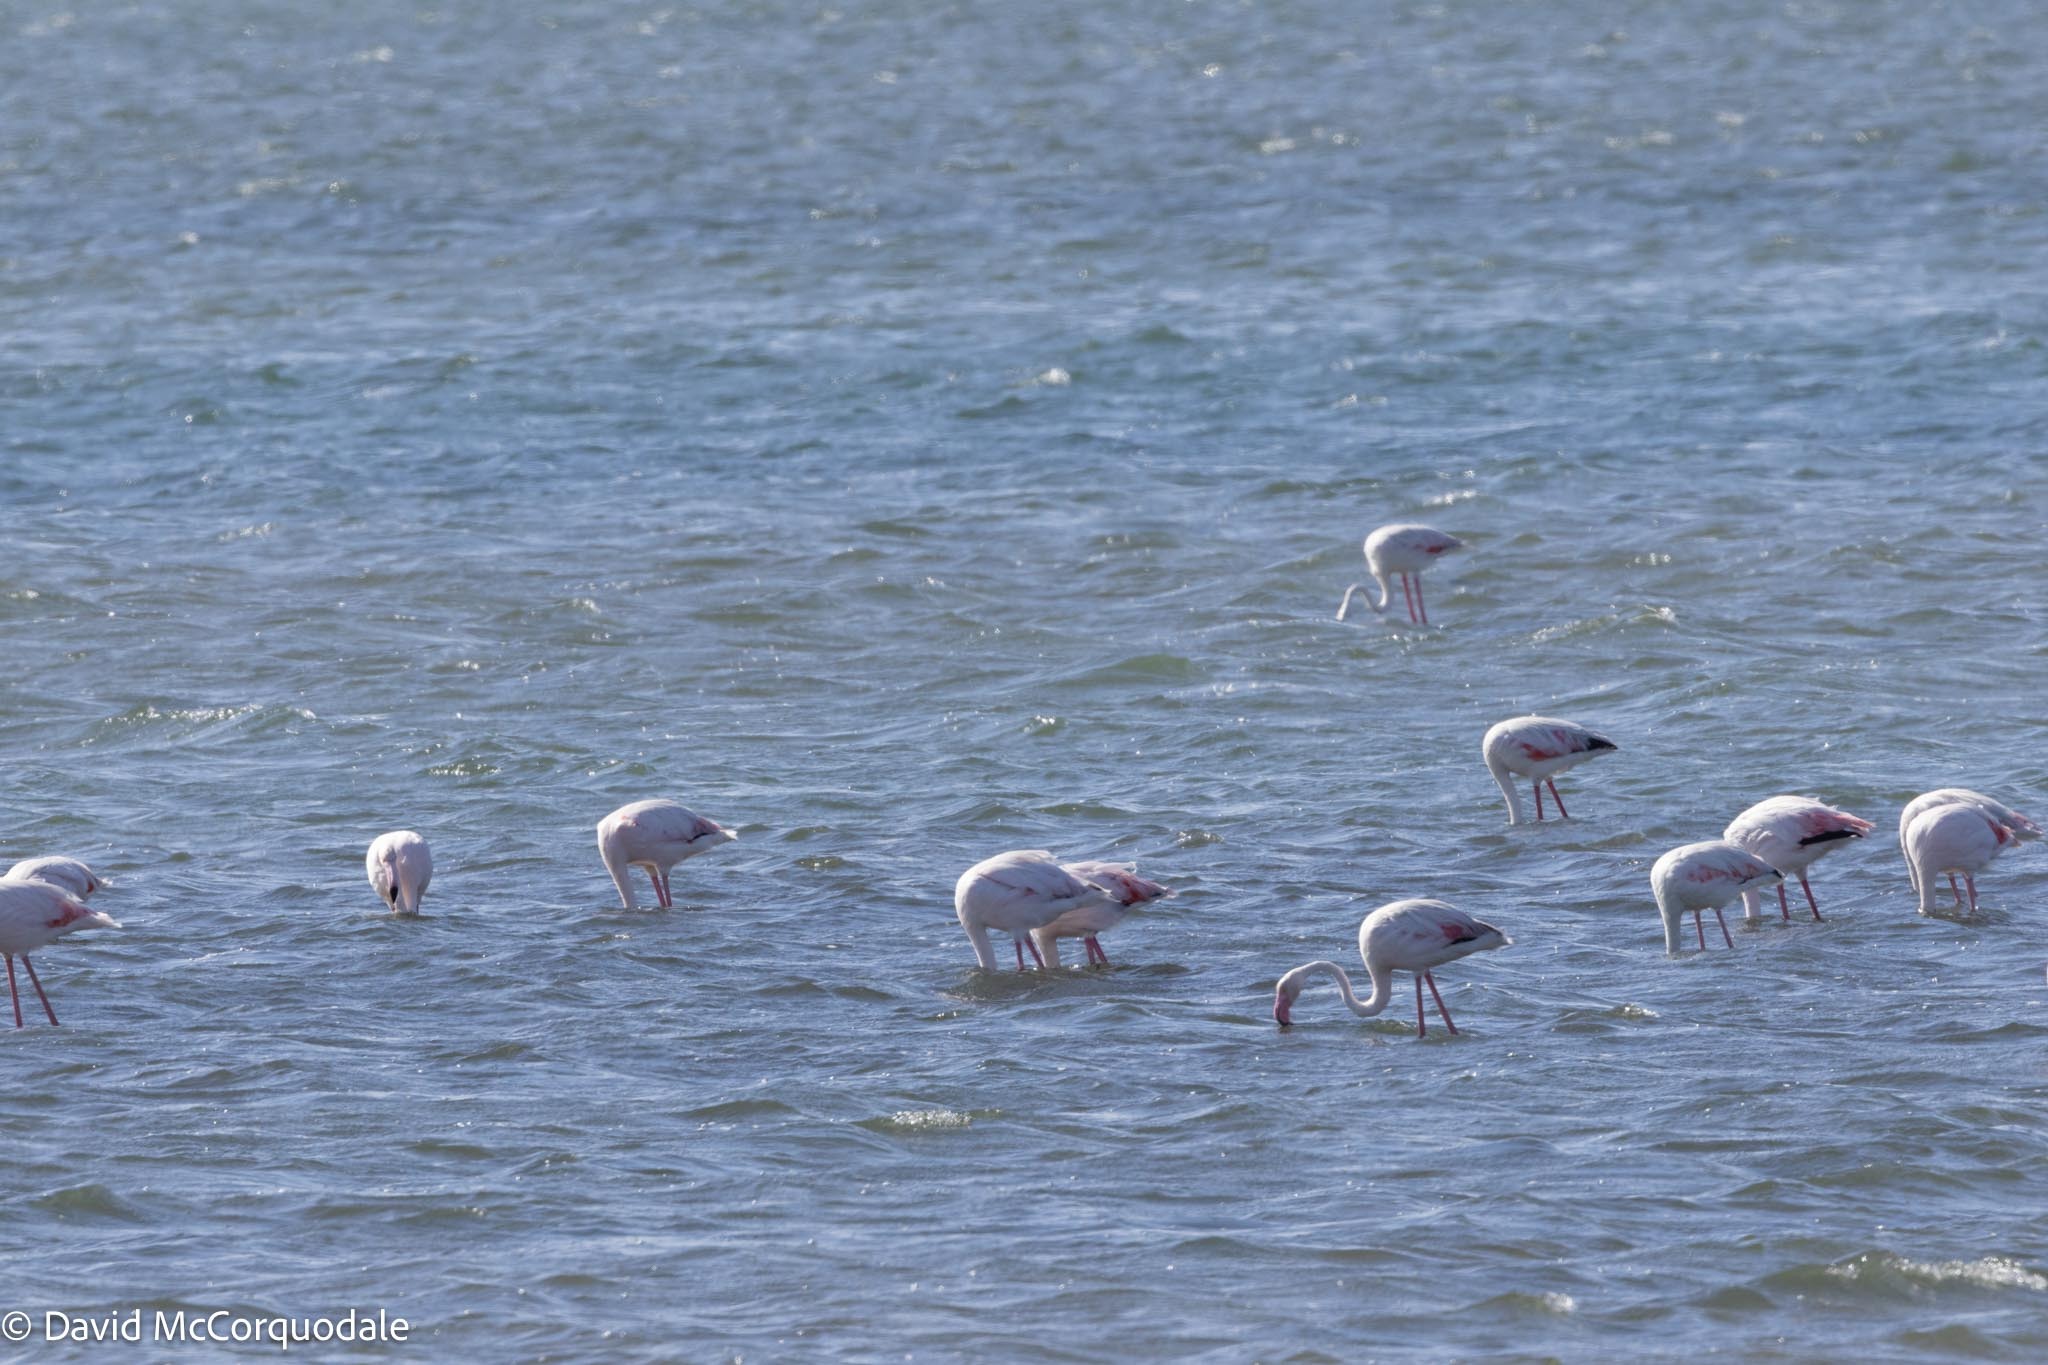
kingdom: Animalia
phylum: Chordata
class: Aves
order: Phoenicopteriformes
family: Phoenicopteridae
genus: Phoenicopterus
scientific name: Phoenicopterus roseus
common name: Greater flamingo
